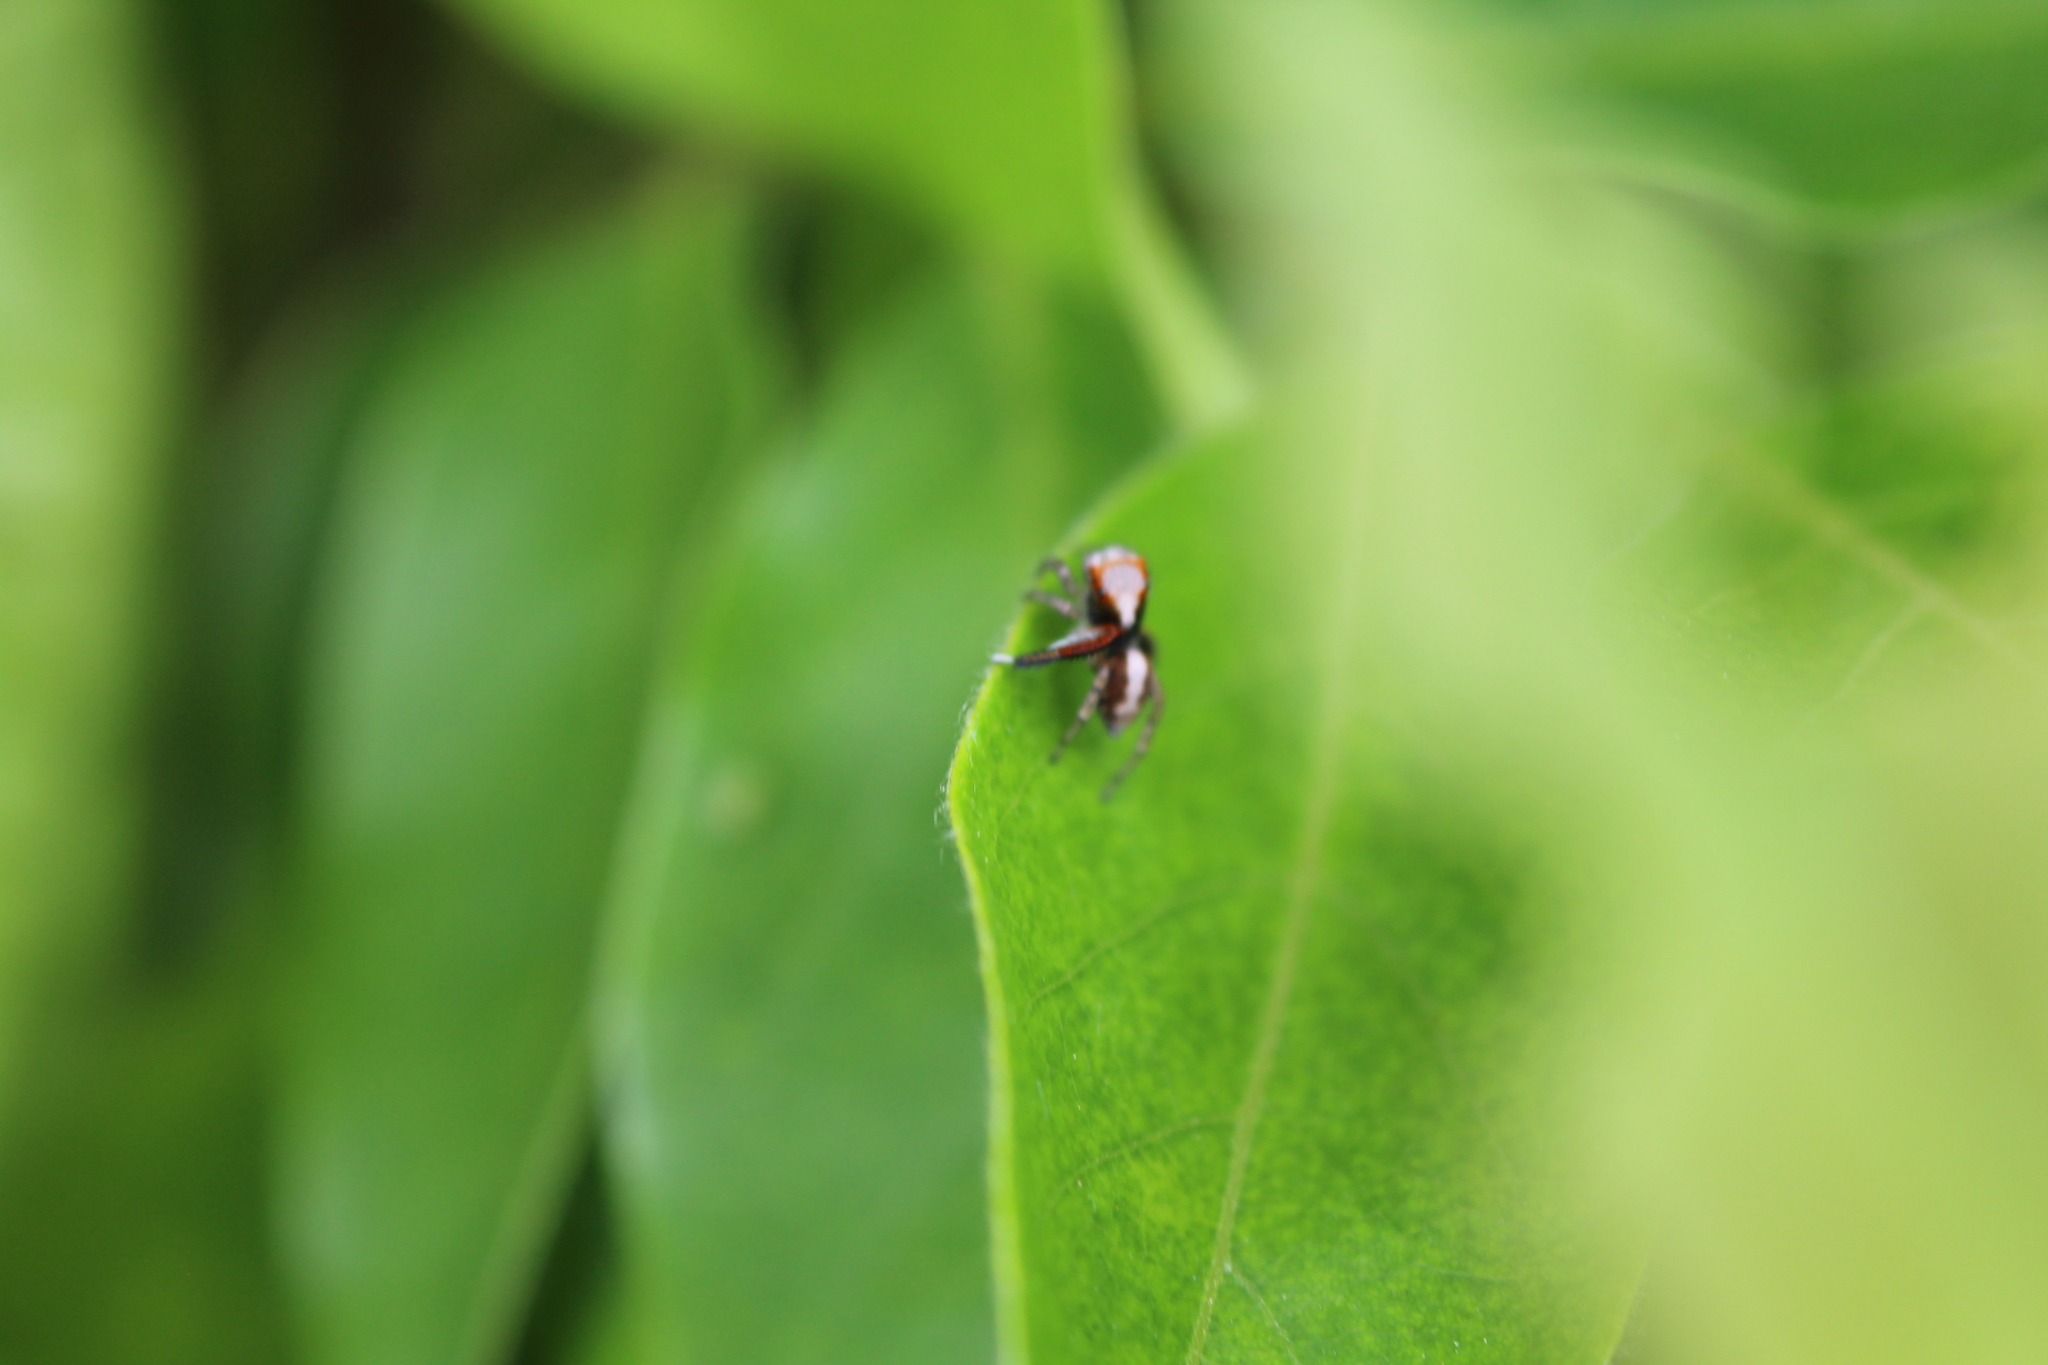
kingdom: Animalia
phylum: Arthropoda
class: Arachnida
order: Araneae
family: Salticidae
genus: Saitis
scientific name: Saitis barbipes
